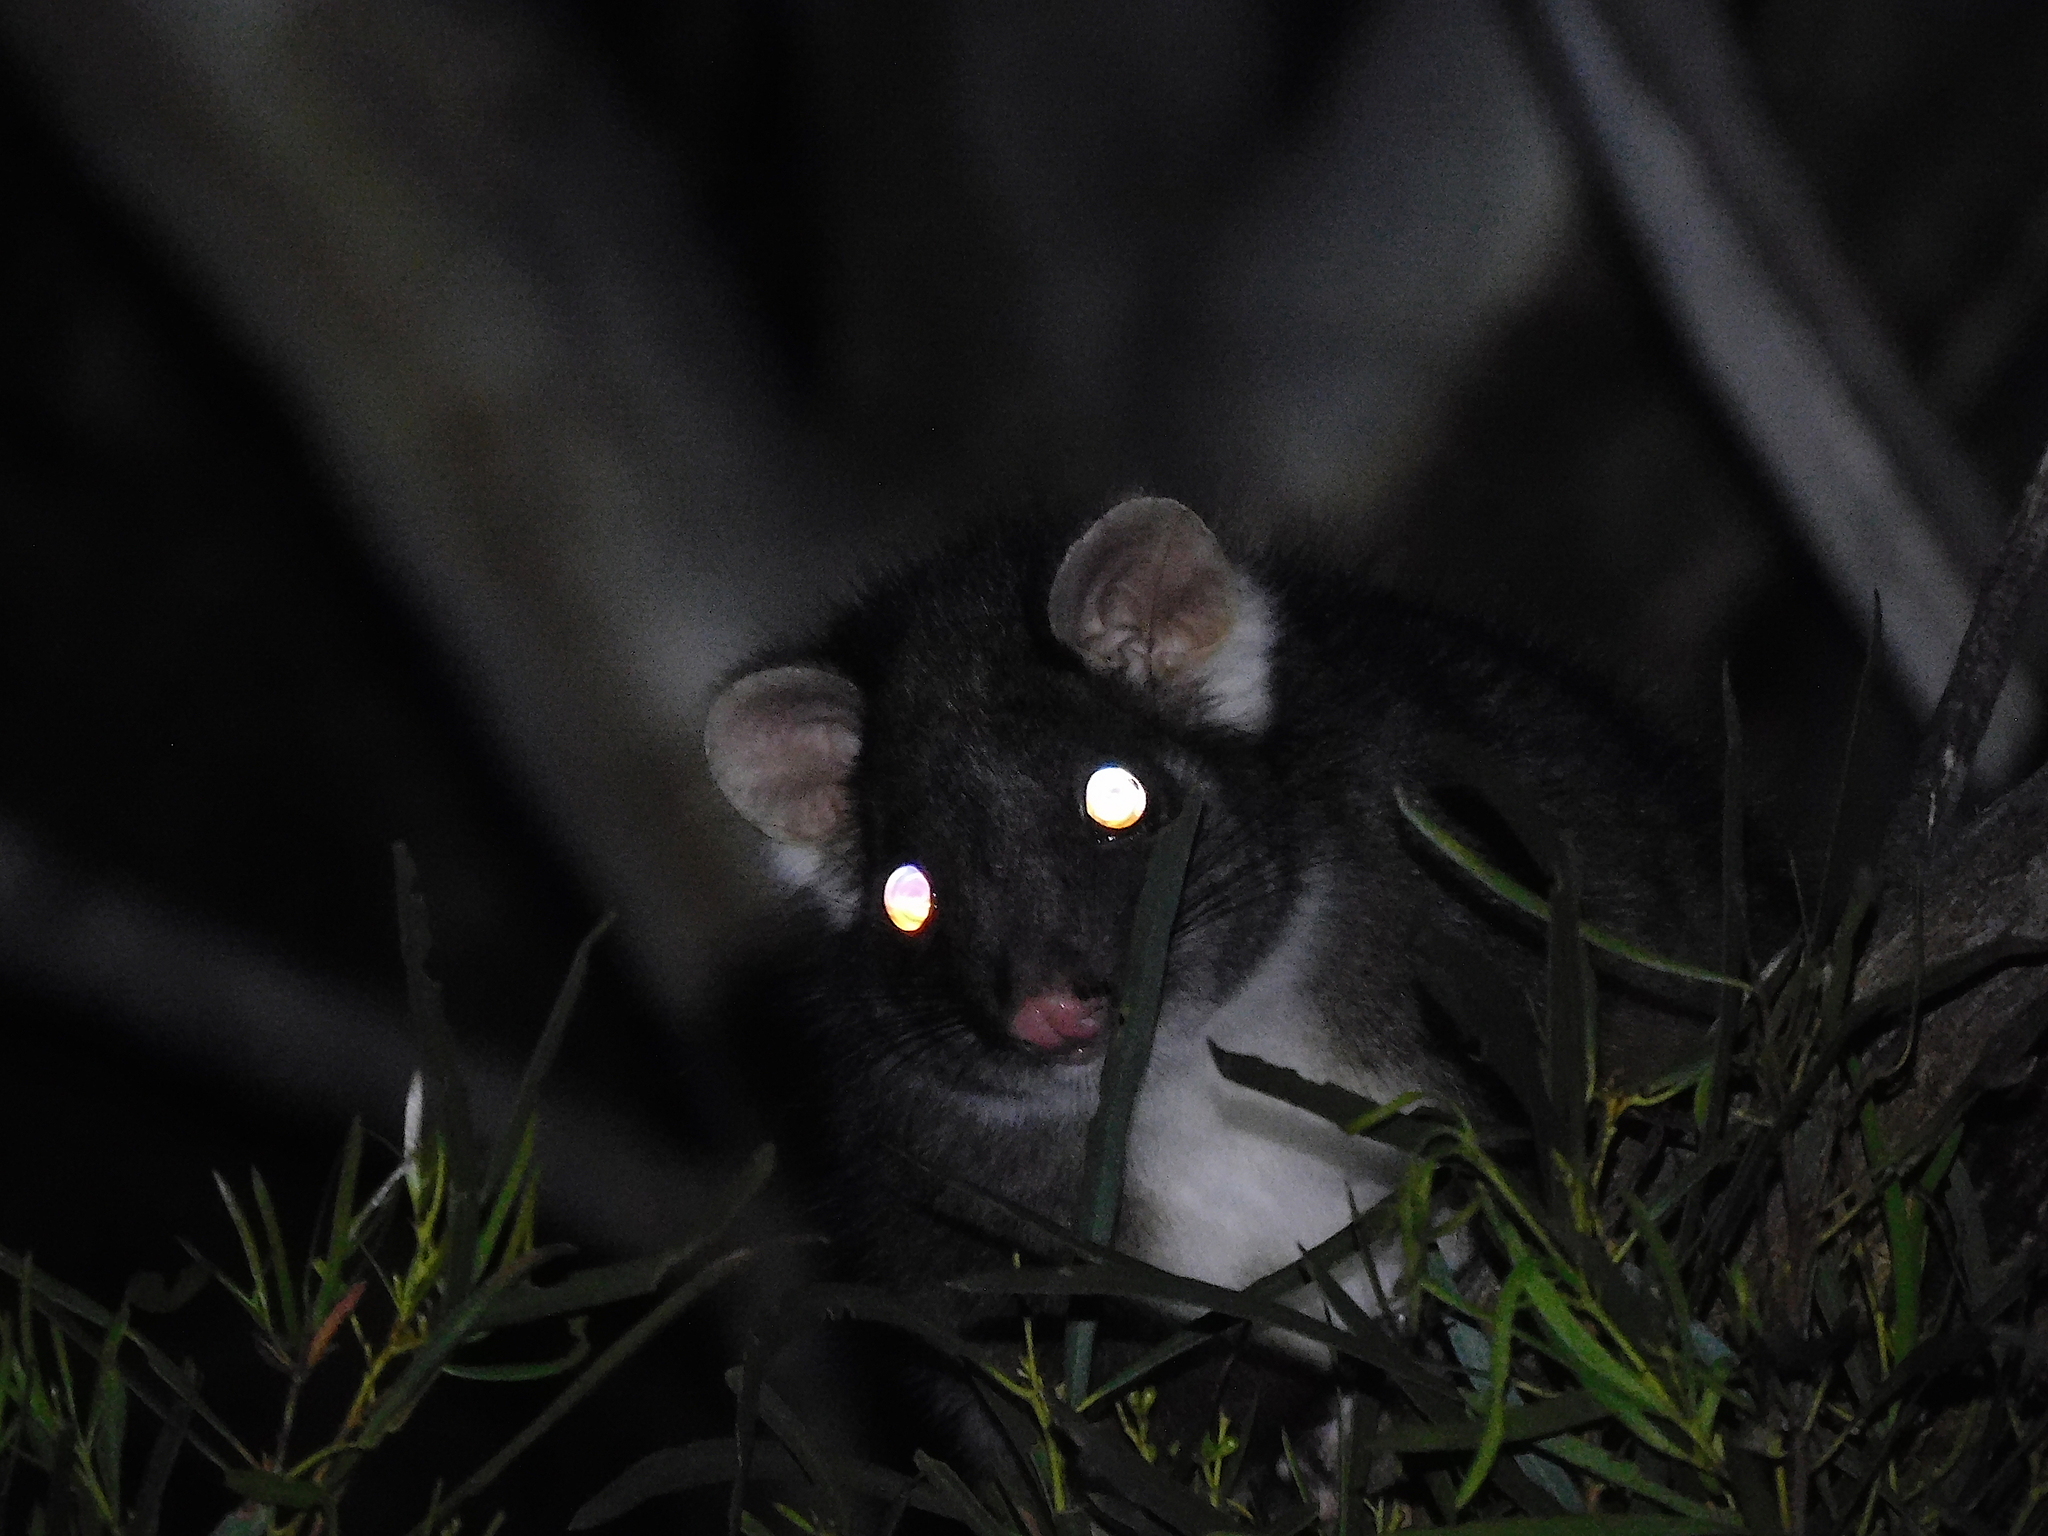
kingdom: Animalia
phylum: Chordata
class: Mammalia
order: Diprotodontia
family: Pseudocheiridae
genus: Pseudocheirus
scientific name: Pseudocheirus peregrinus
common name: Common ringtail possum
